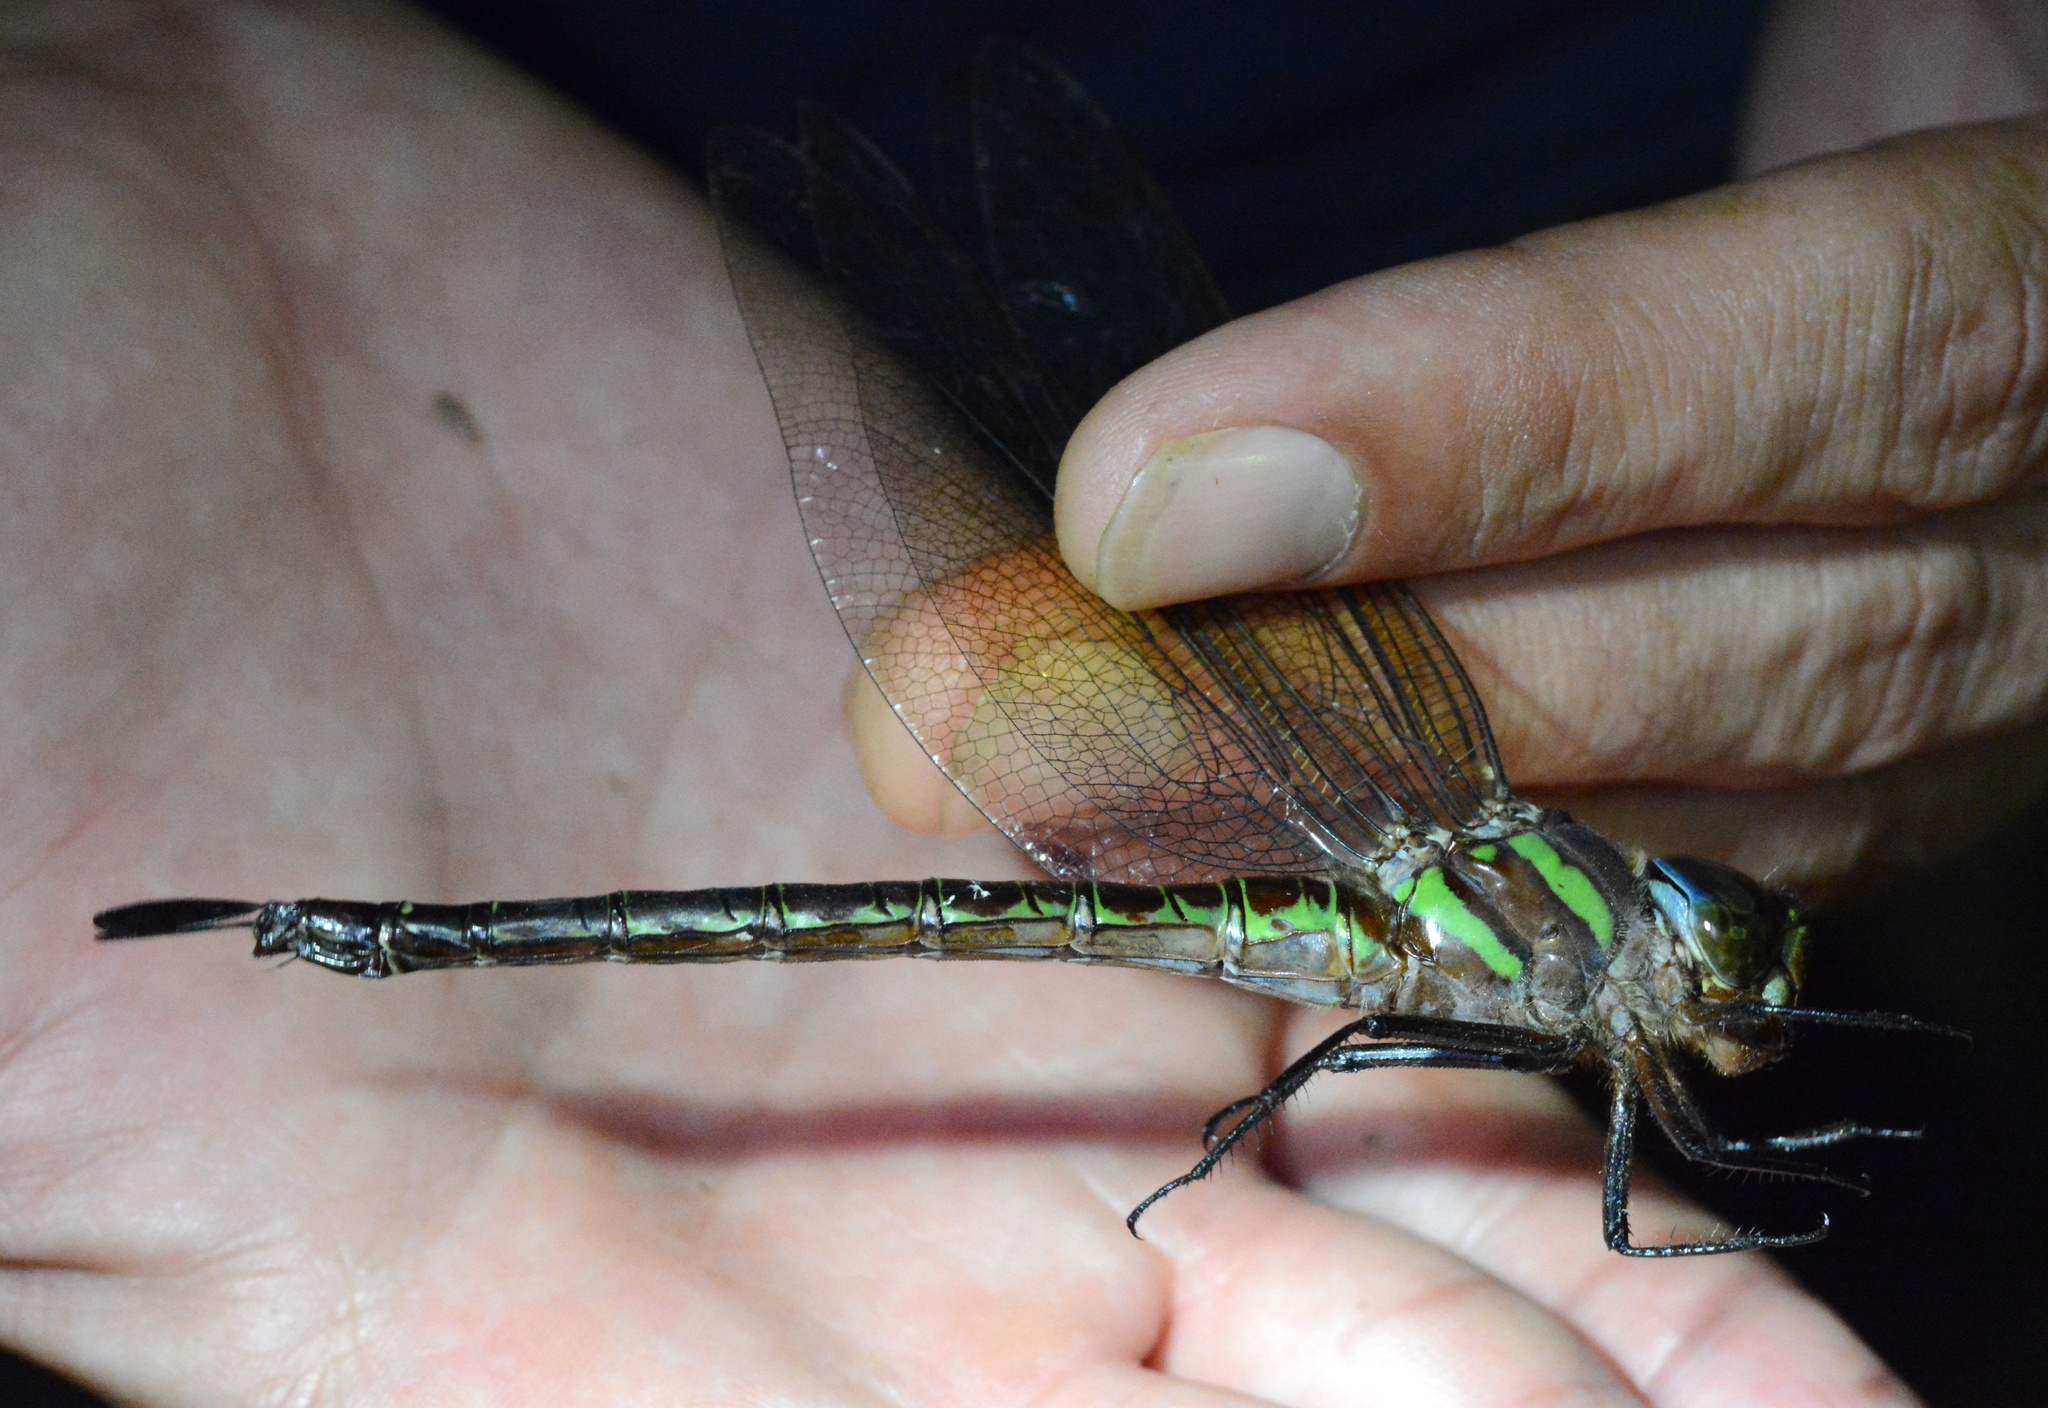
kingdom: Animalia
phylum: Arthropoda
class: Insecta
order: Odonata
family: Aeshnidae
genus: Epiaeschna
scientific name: Epiaeschna heros
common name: Swamp darner
